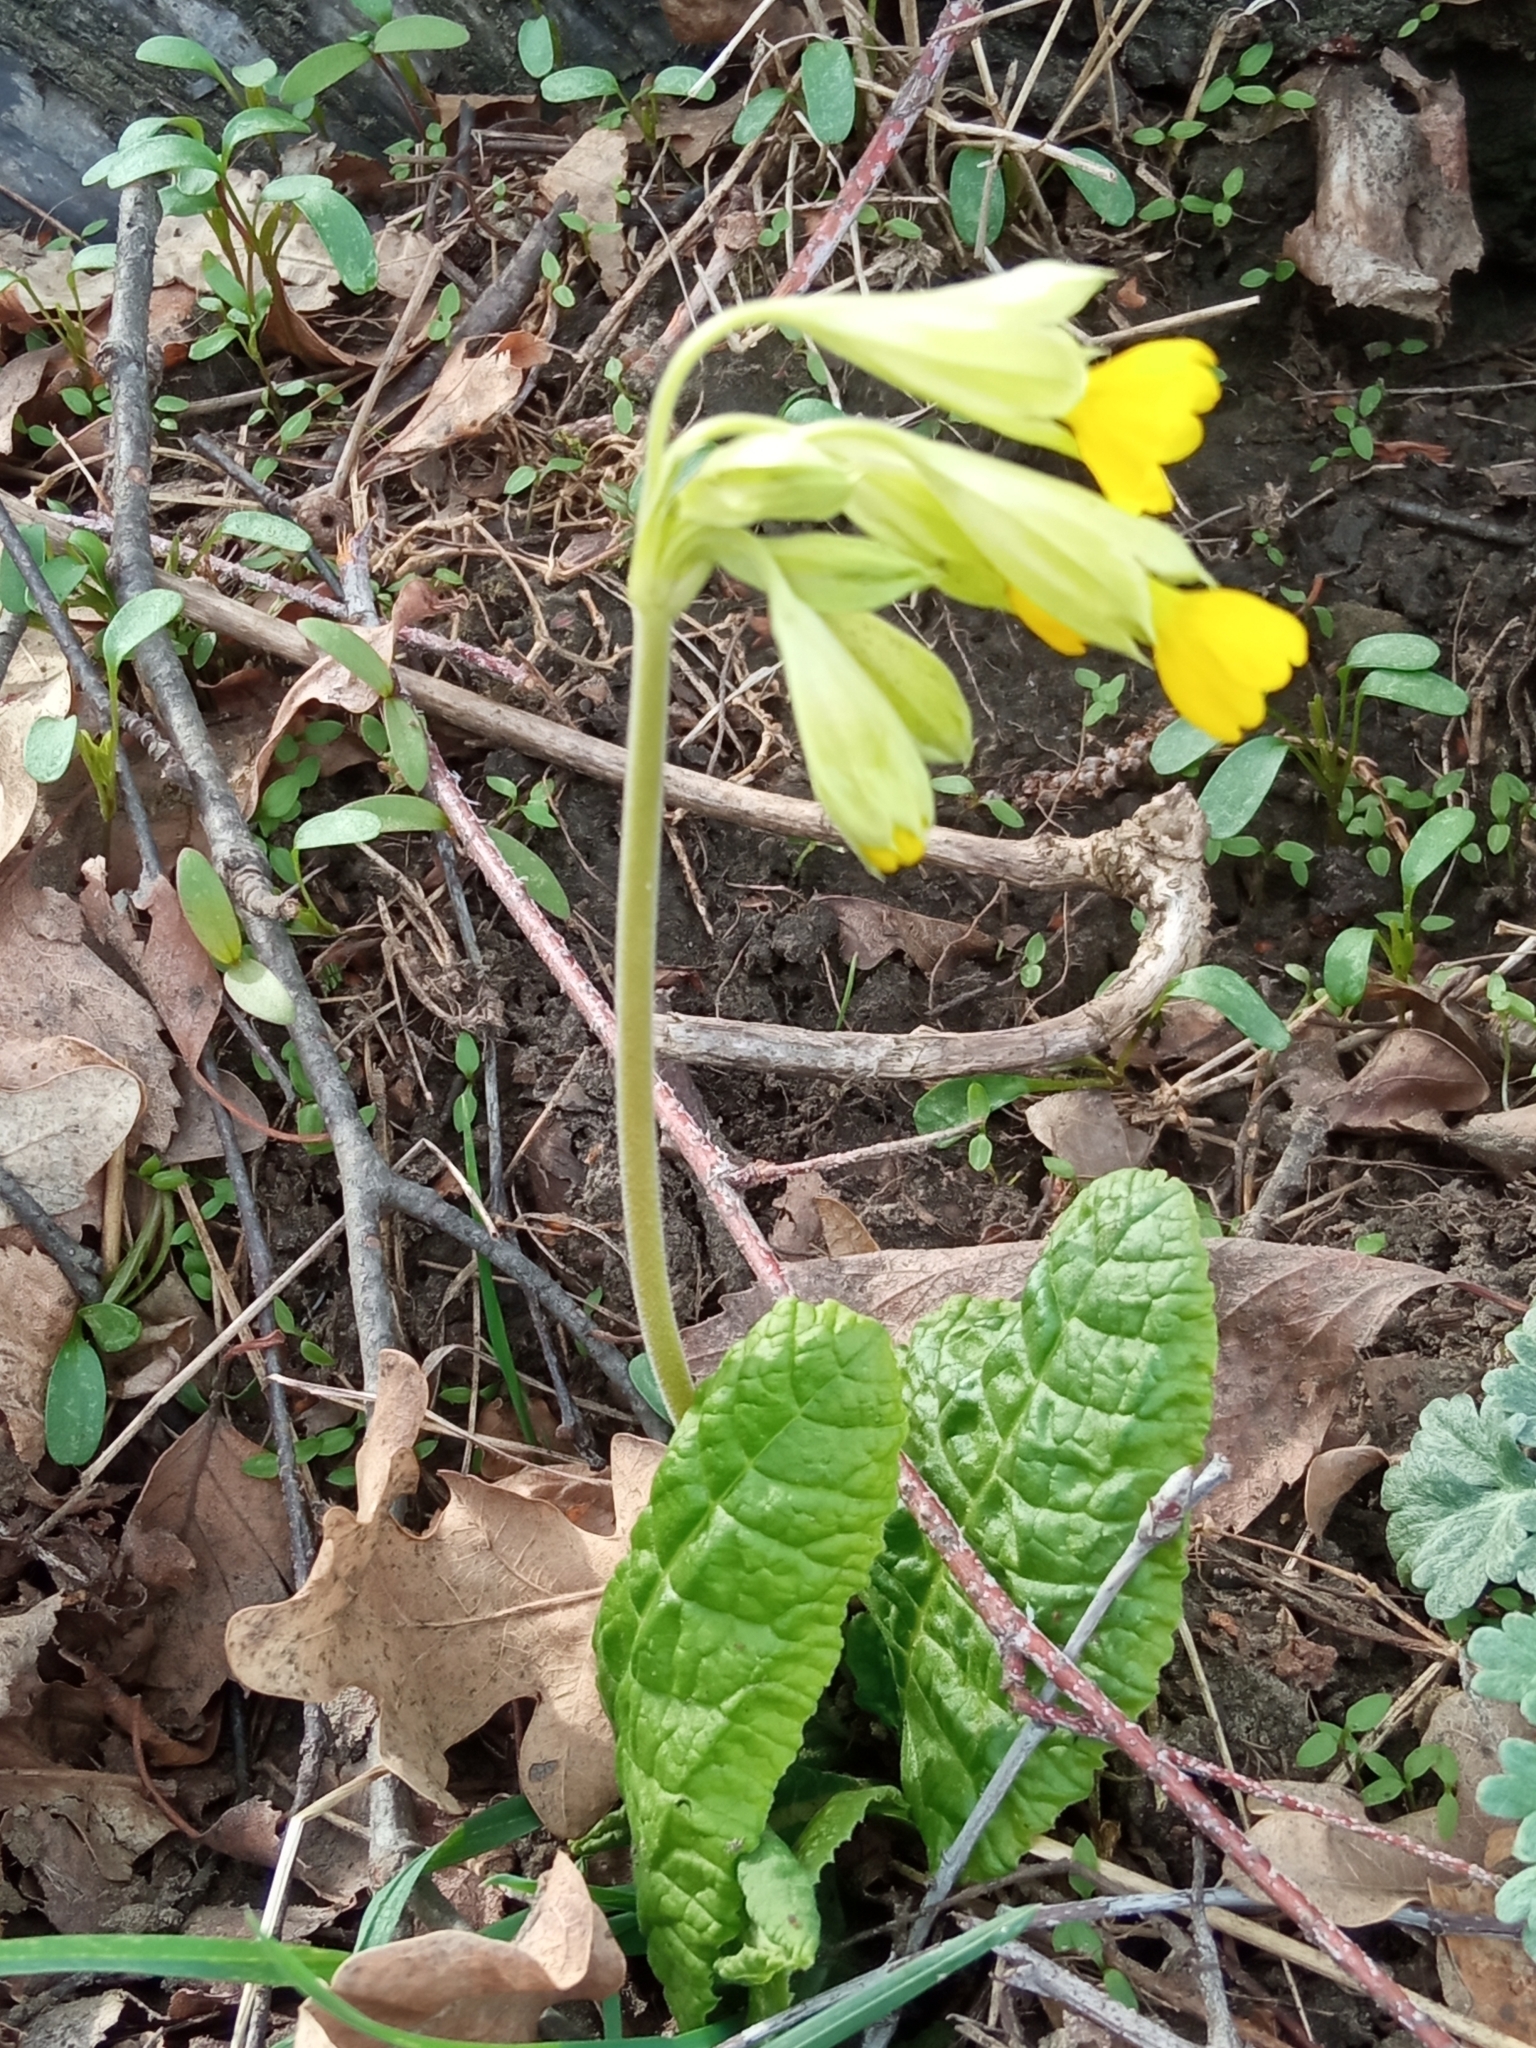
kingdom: Plantae
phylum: Tracheophyta
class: Magnoliopsida
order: Ericales
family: Primulaceae
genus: Primula
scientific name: Primula veris
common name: Cowslip
